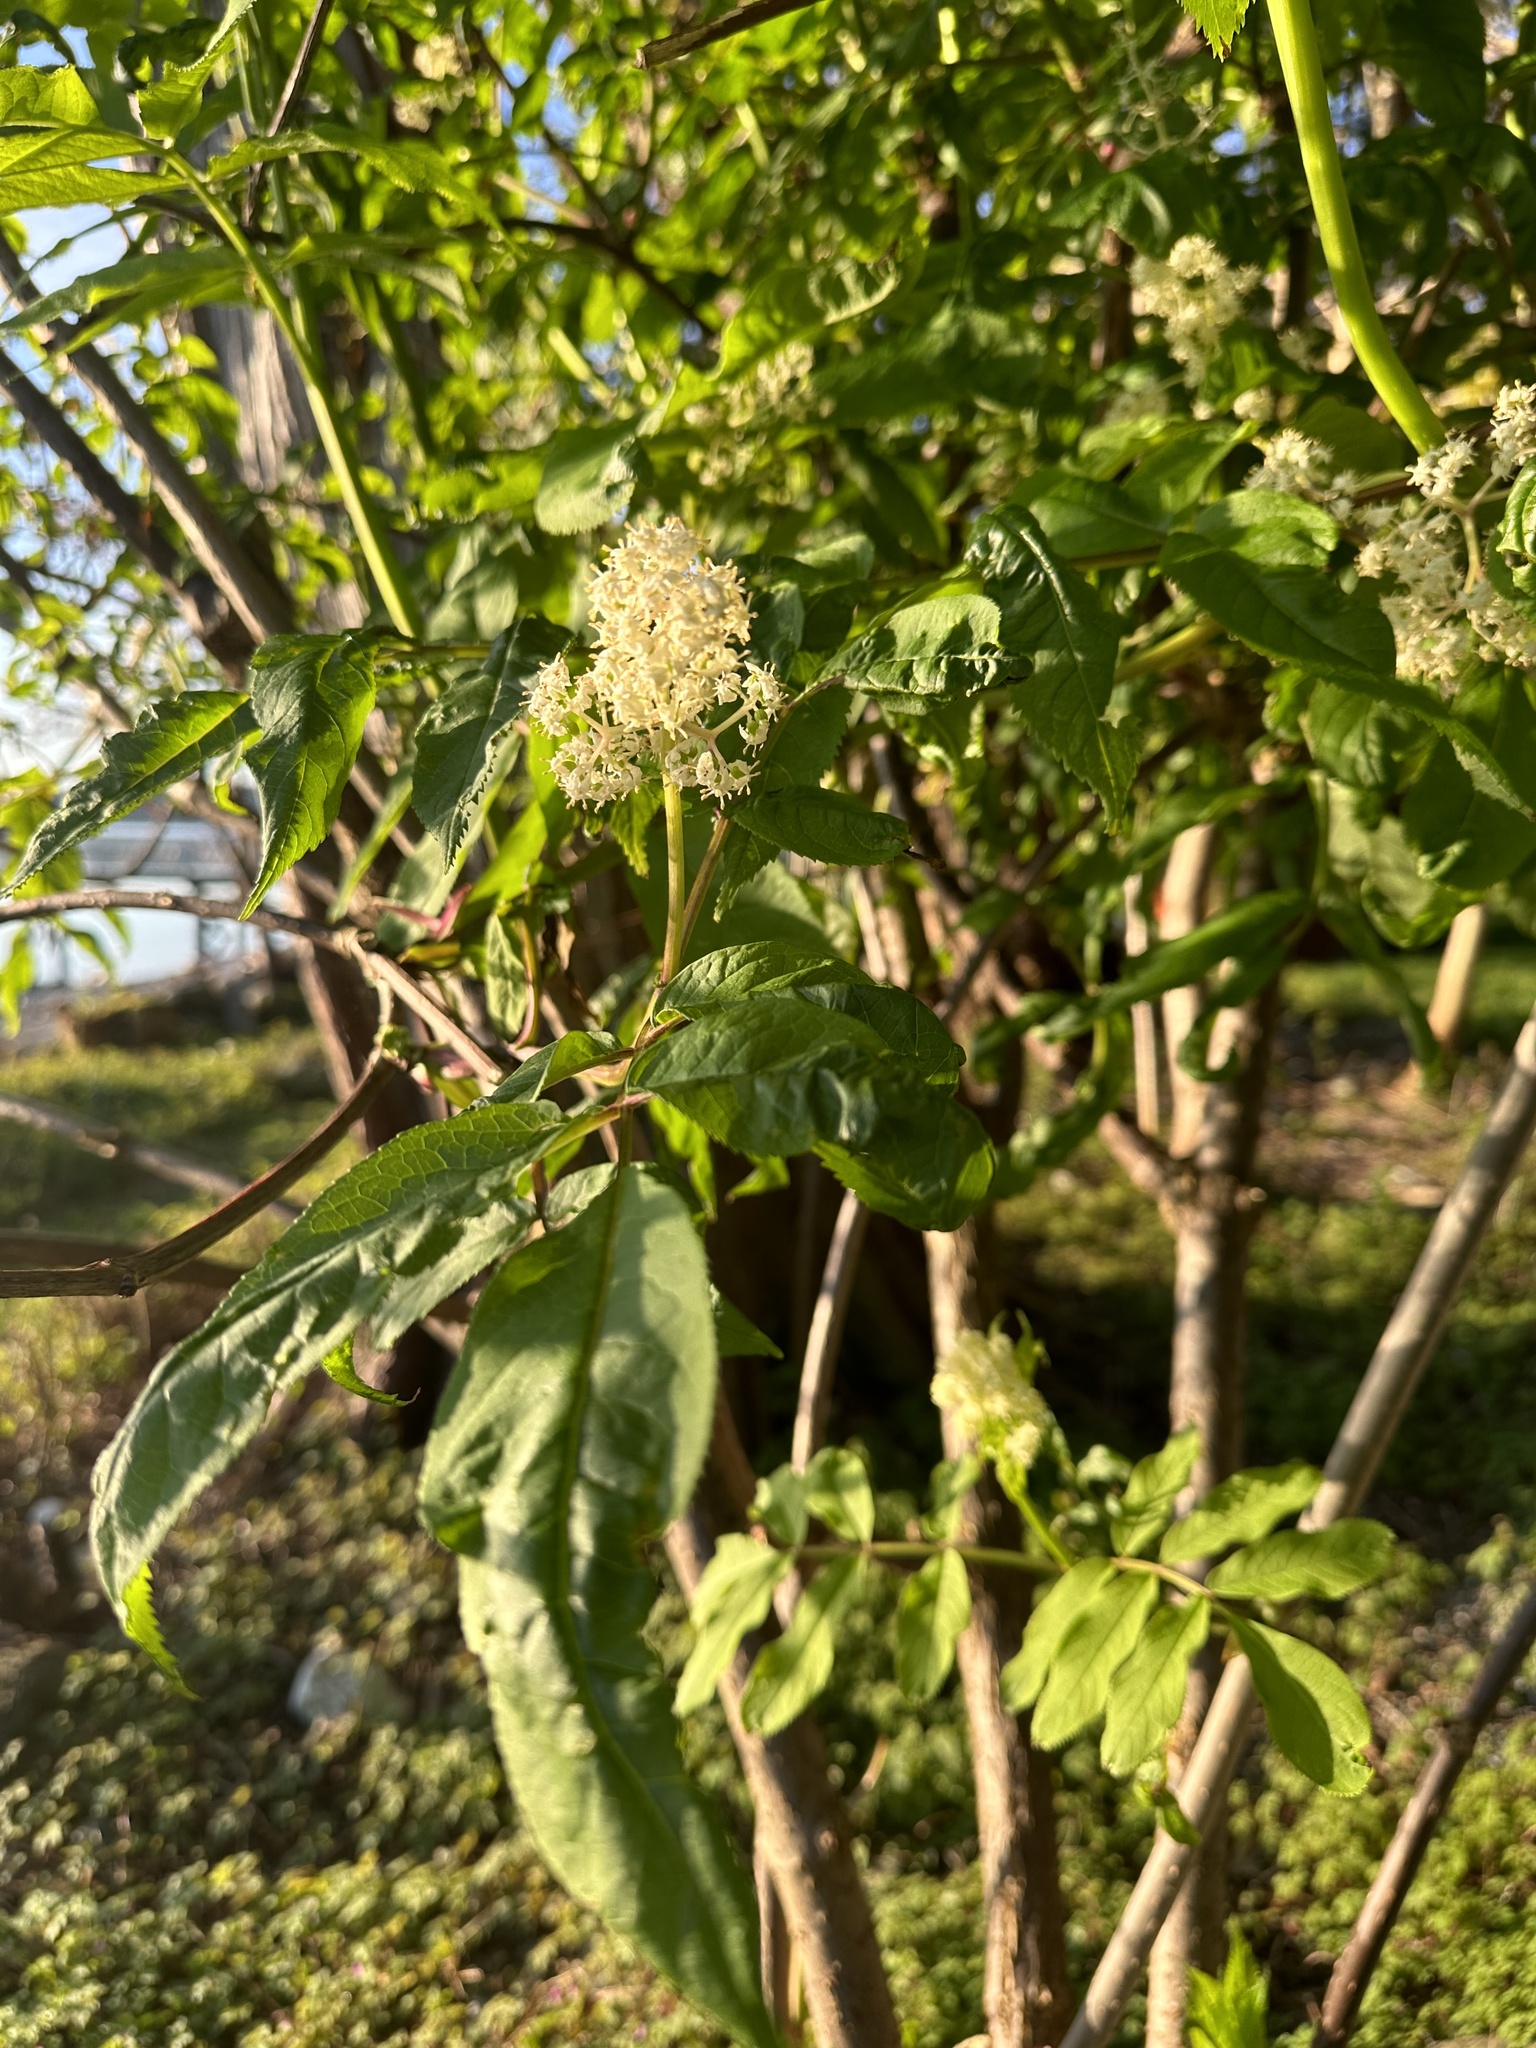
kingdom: Plantae
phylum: Tracheophyta
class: Magnoliopsida
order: Dipsacales
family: Viburnaceae
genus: Sambucus
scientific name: Sambucus racemosa
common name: Red-berried elder
